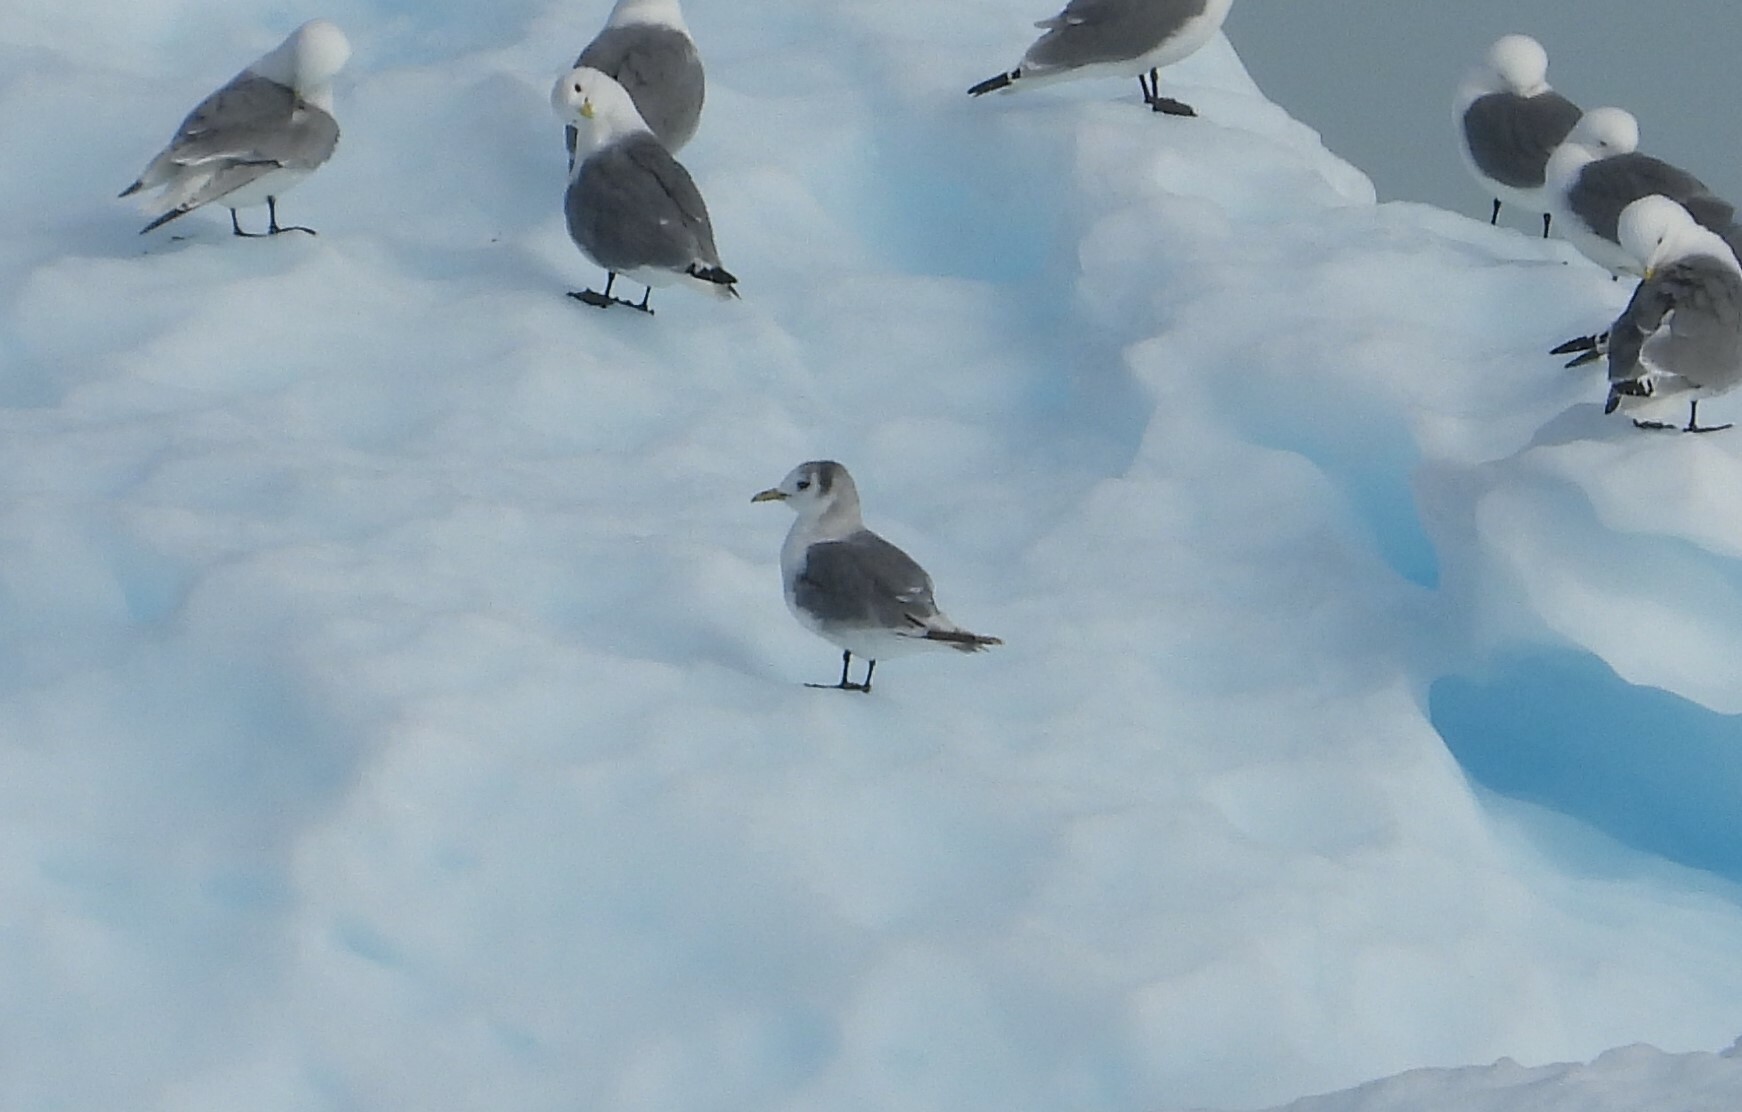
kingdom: Animalia
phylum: Chordata
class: Aves
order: Charadriiformes
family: Laridae
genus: Rissa
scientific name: Rissa tridactyla
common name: Black-legged kittiwake
